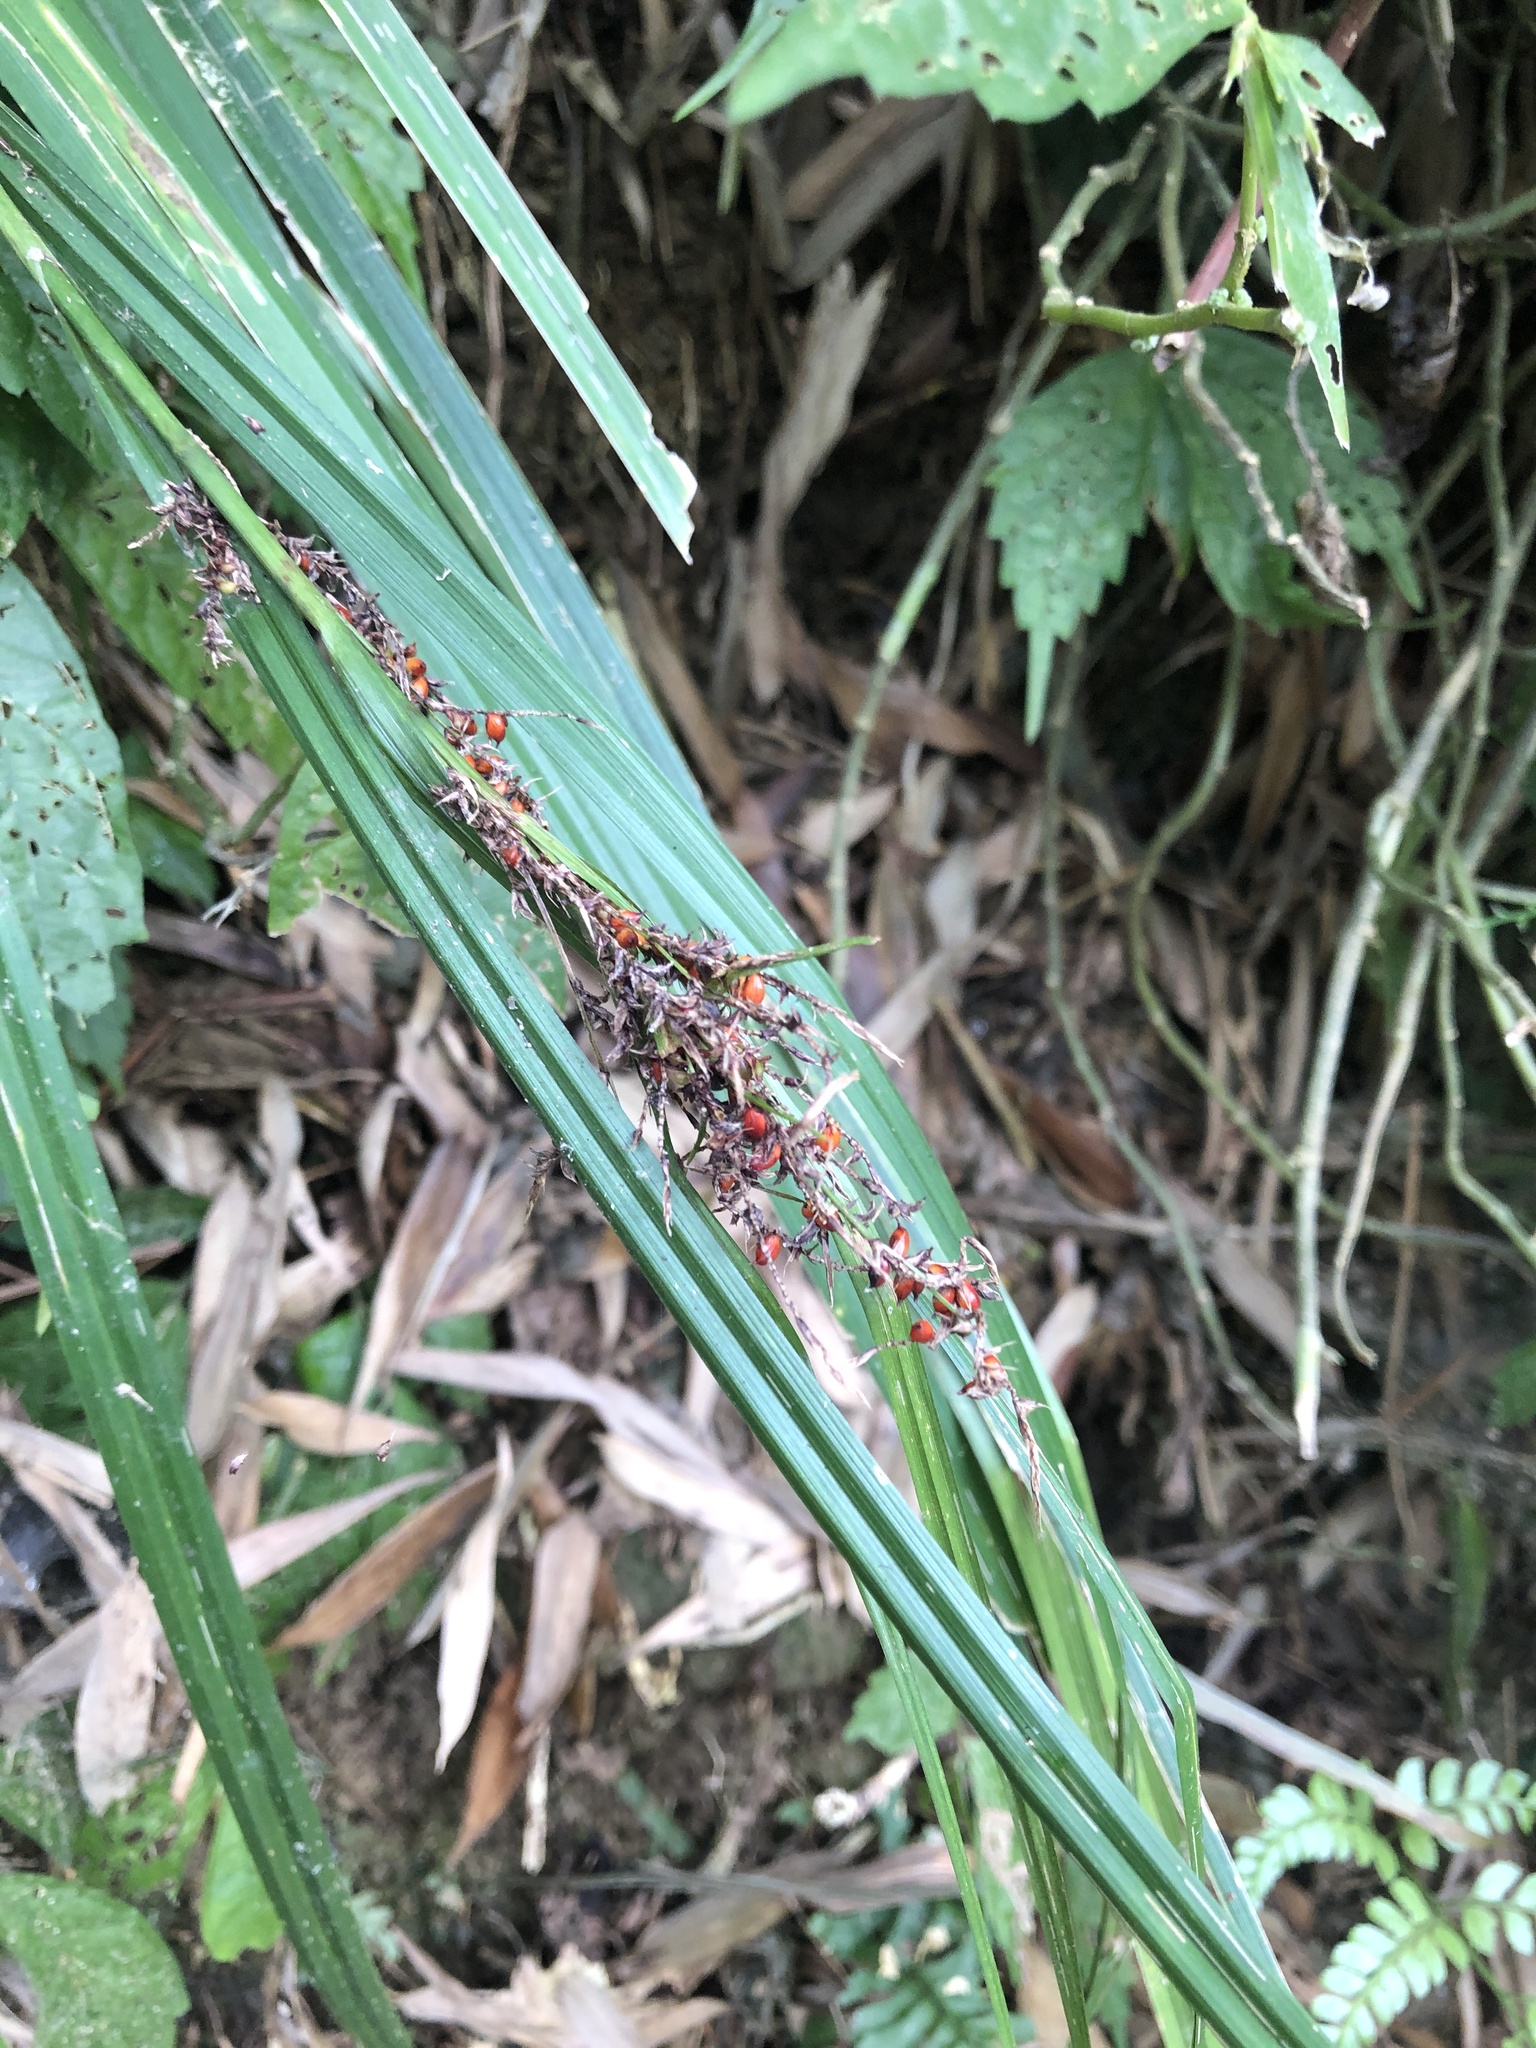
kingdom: Plantae
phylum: Tracheophyta
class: Liliopsida
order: Poales
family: Cyperaceae
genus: Carex
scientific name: Carex baccans
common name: Crimson seeded sedge
